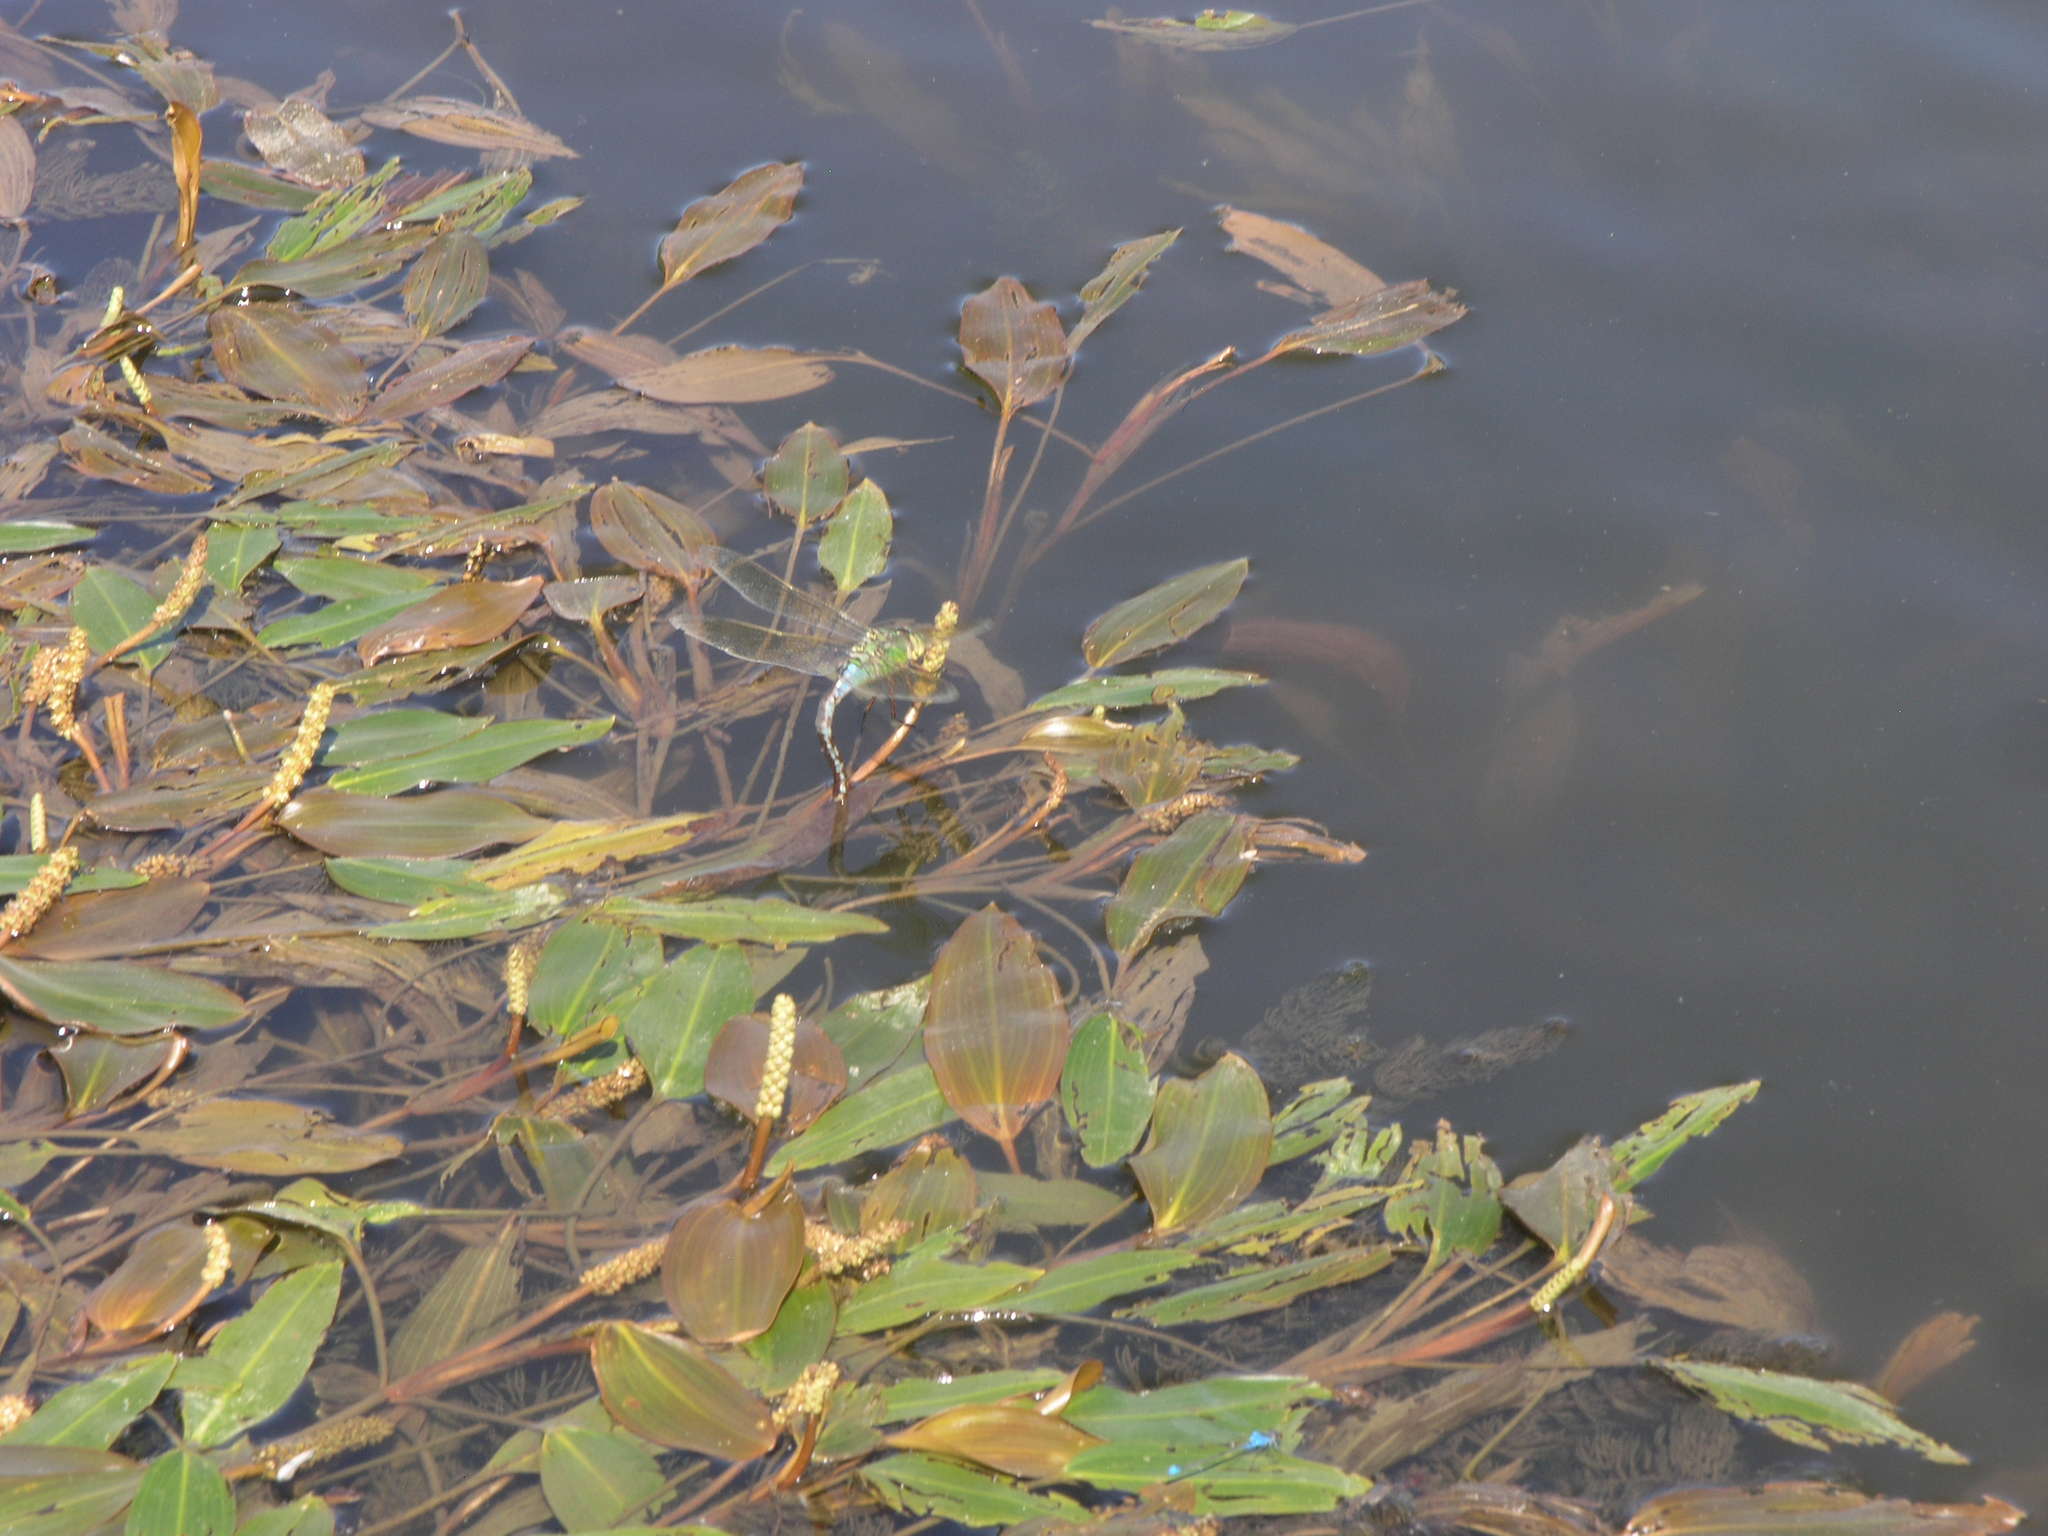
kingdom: Plantae
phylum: Tracheophyta
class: Liliopsida
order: Alismatales
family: Potamogetonaceae
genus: Potamogeton
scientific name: Potamogeton nodosus
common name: Loddon pondweed
